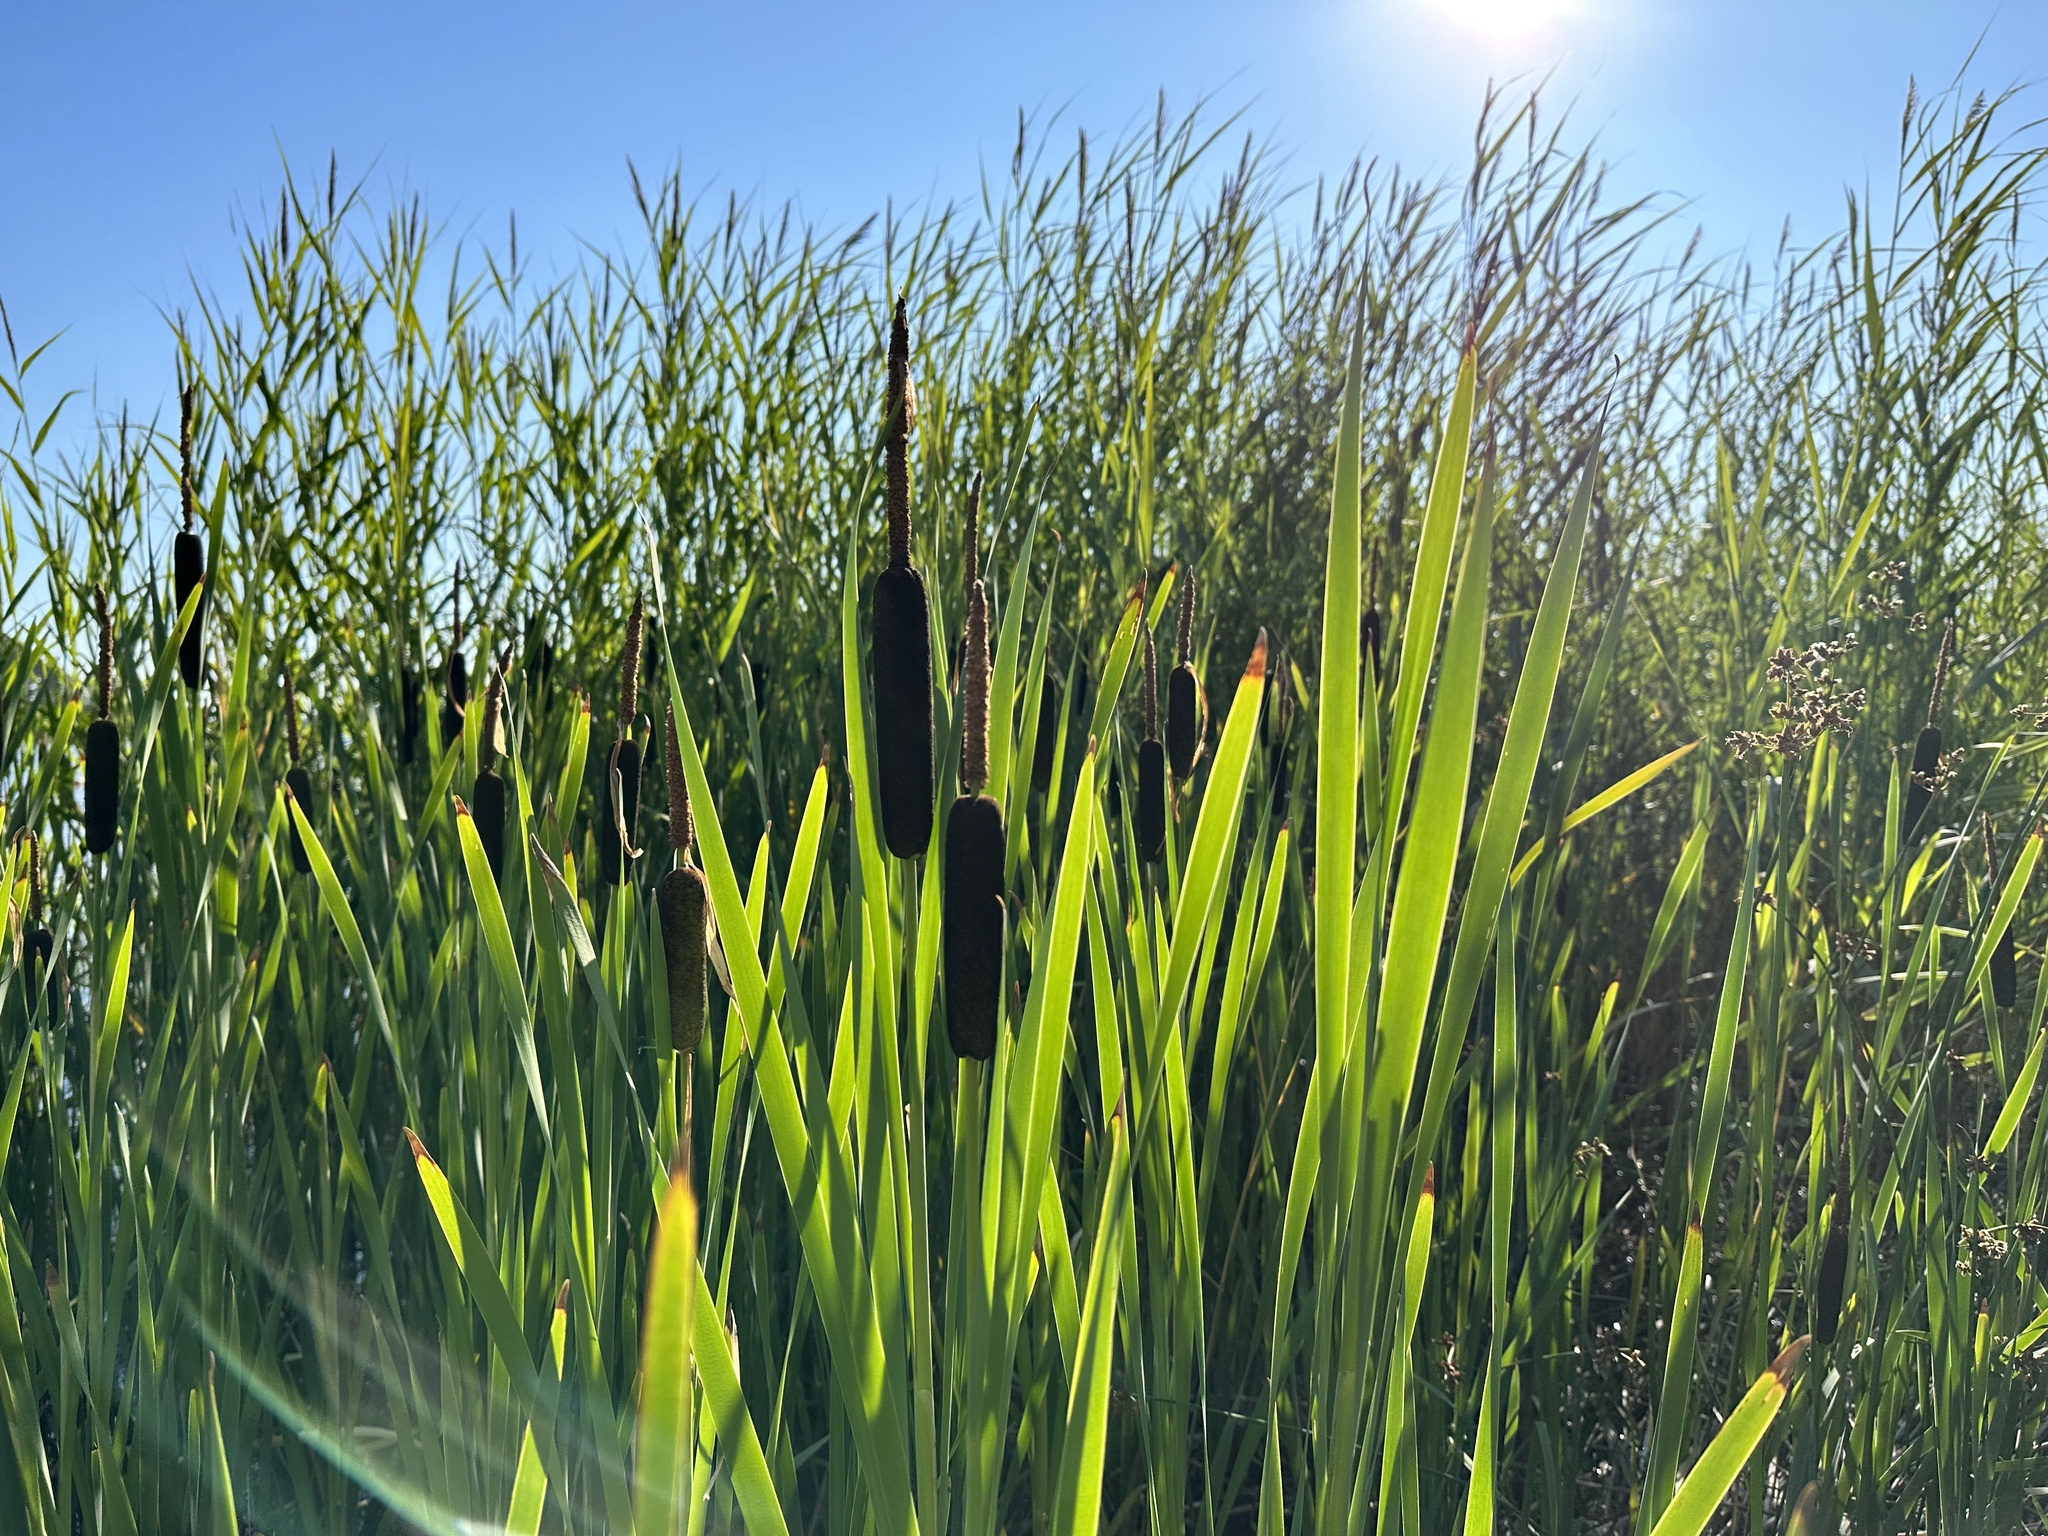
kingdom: Plantae
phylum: Tracheophyta
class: Liliopsida
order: Poales
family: Typhaceae
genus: Typha
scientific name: Typha latifolia
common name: Broadleaf cattail
